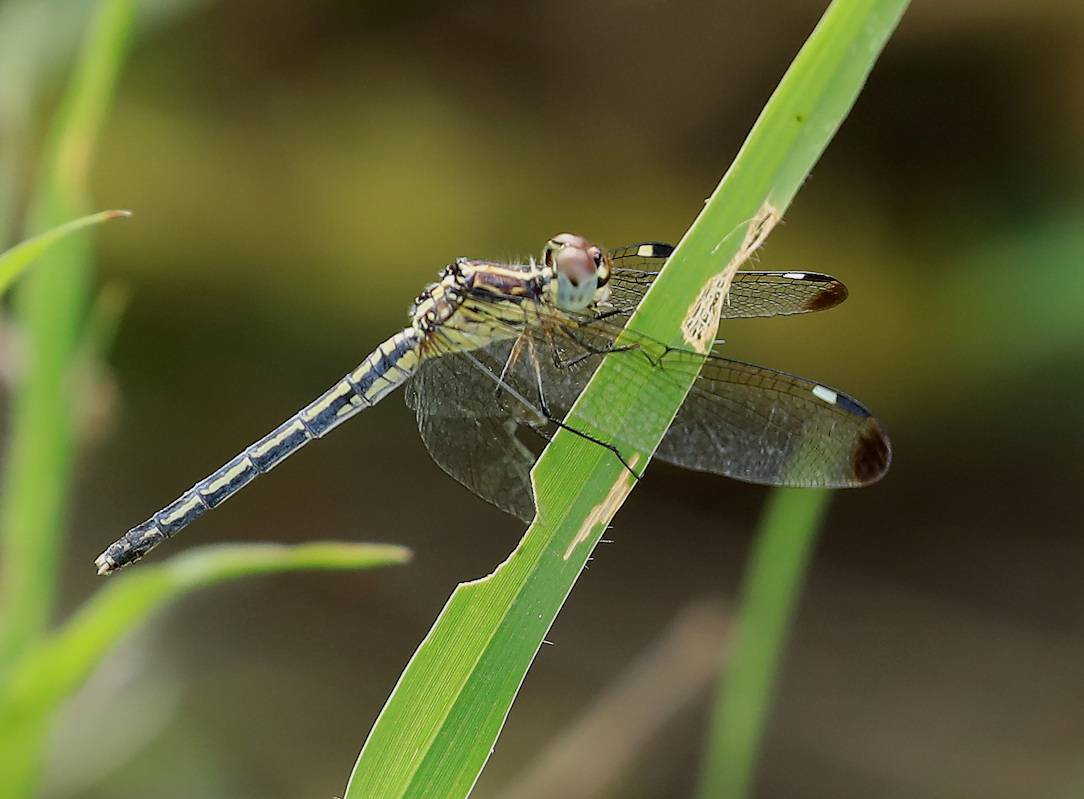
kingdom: Animalia
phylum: Arthropoda
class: Insecta
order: Odonata
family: Libellulidae
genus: Hemistigma
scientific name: Hemistigma albipunctum
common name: African pied-spot
